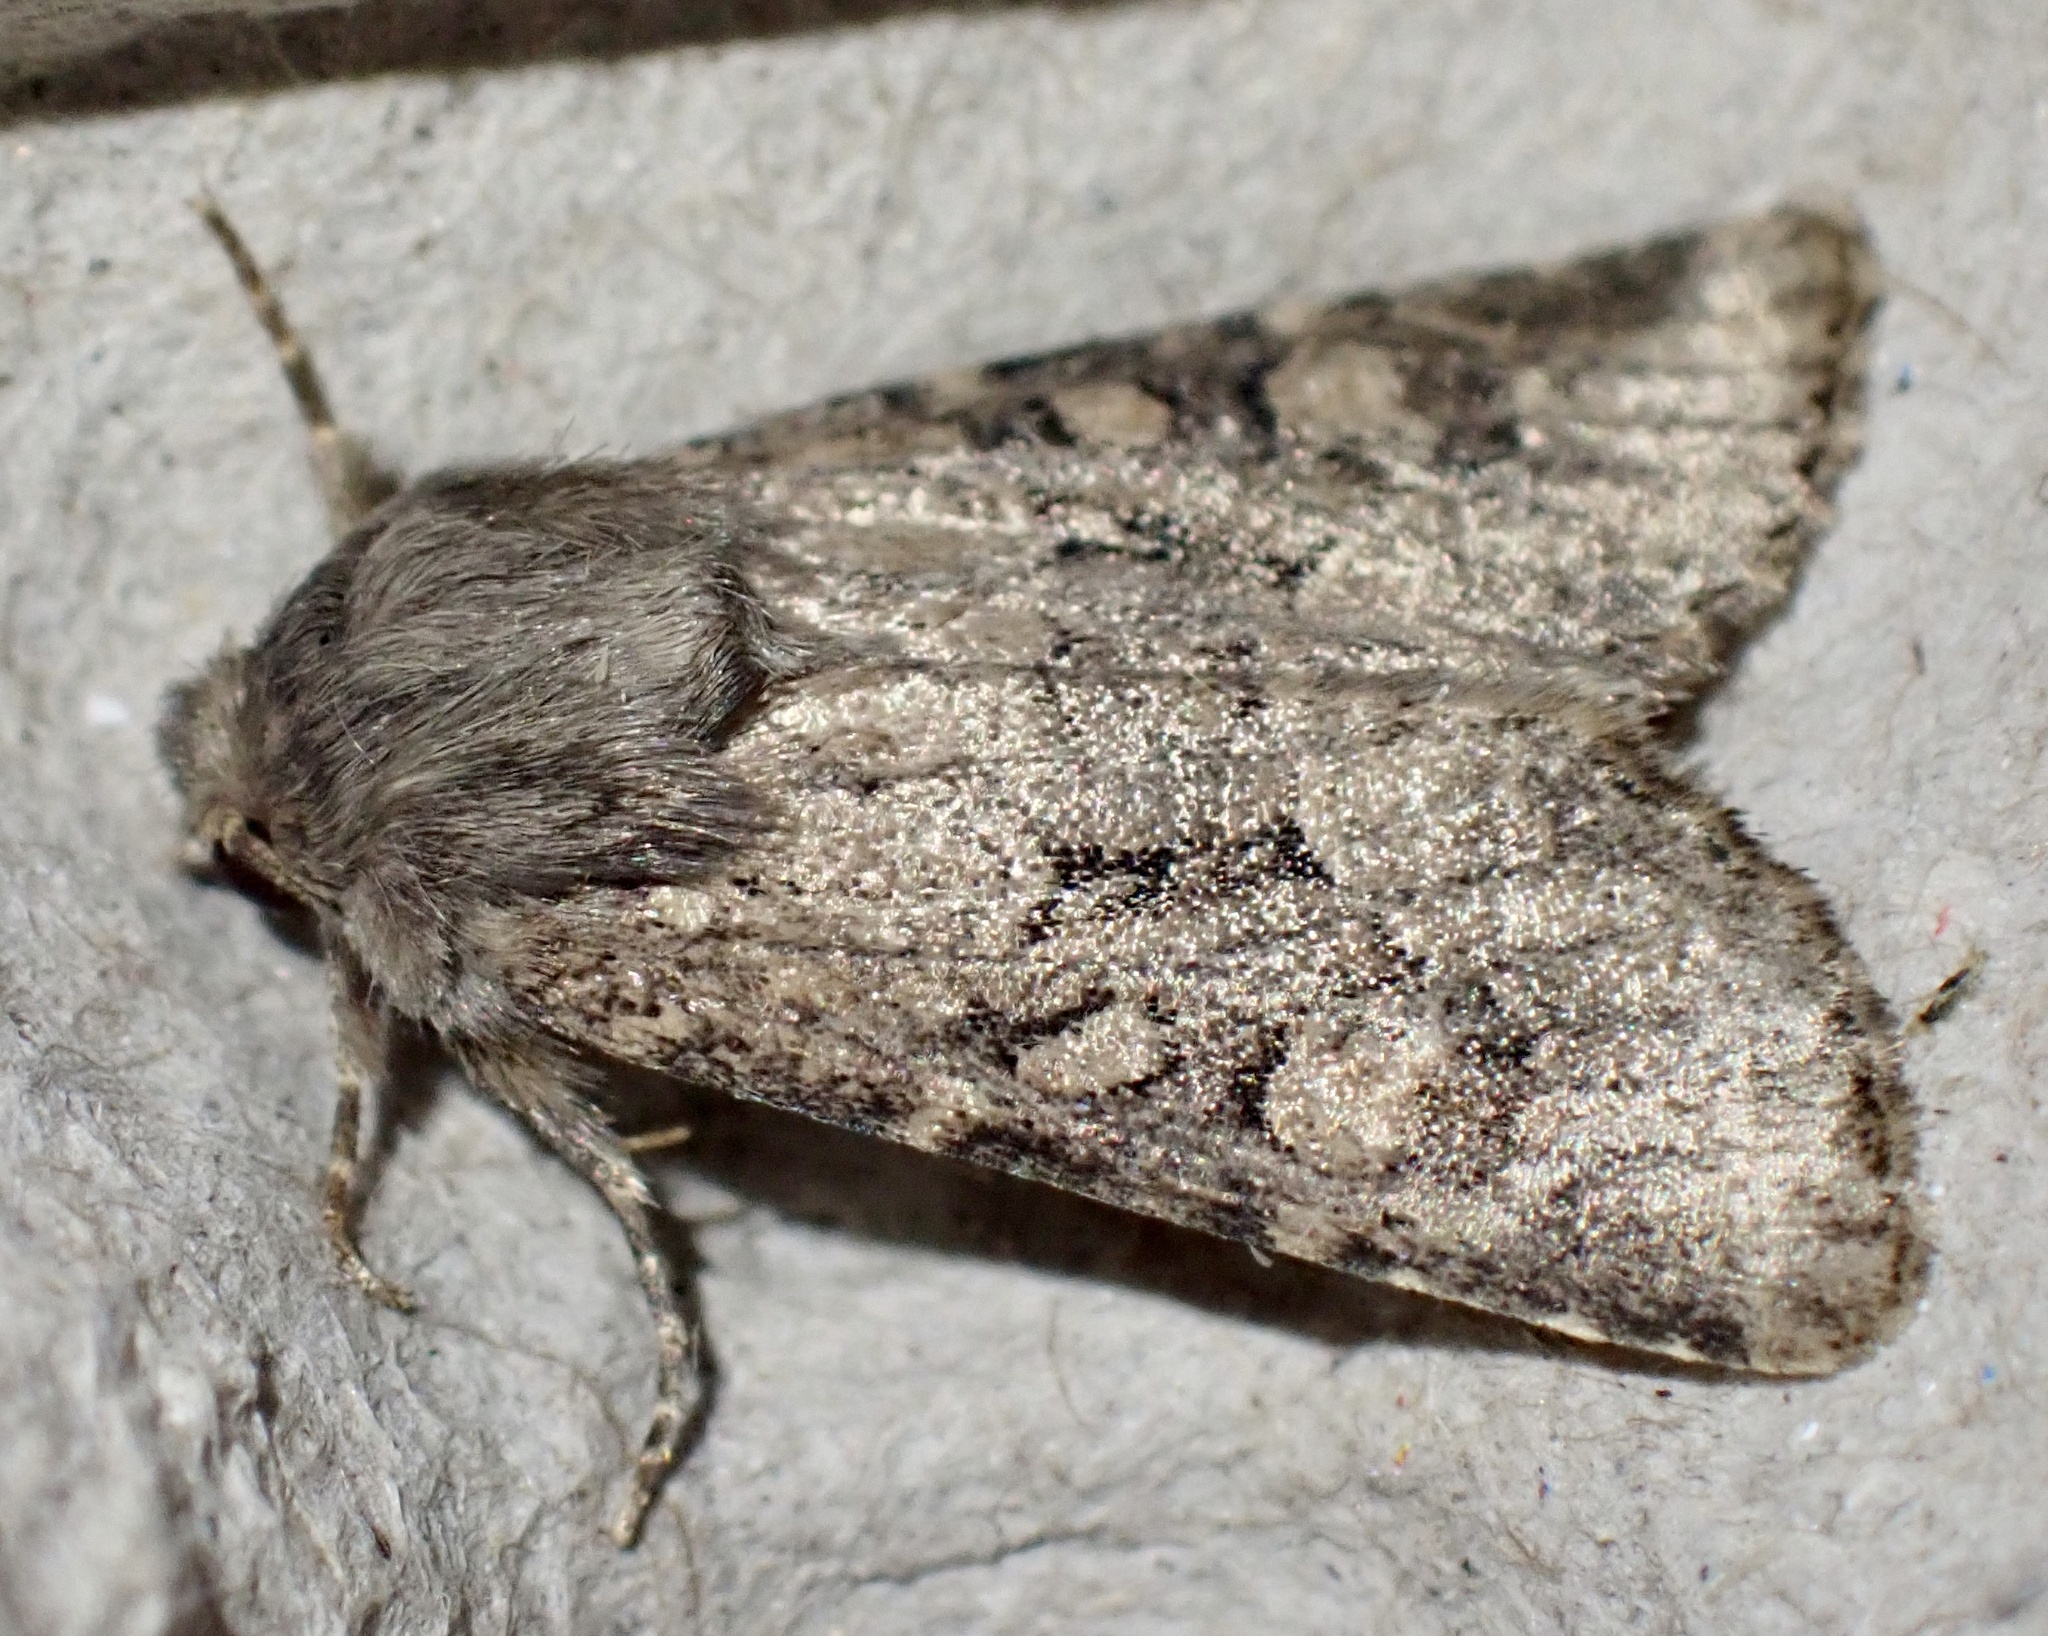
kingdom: Animalia
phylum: Arthropoda
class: Insecta
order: Lepidoptera
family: Noctuidae
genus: Luperina
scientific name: Luperina testacea
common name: Flounced rustic
